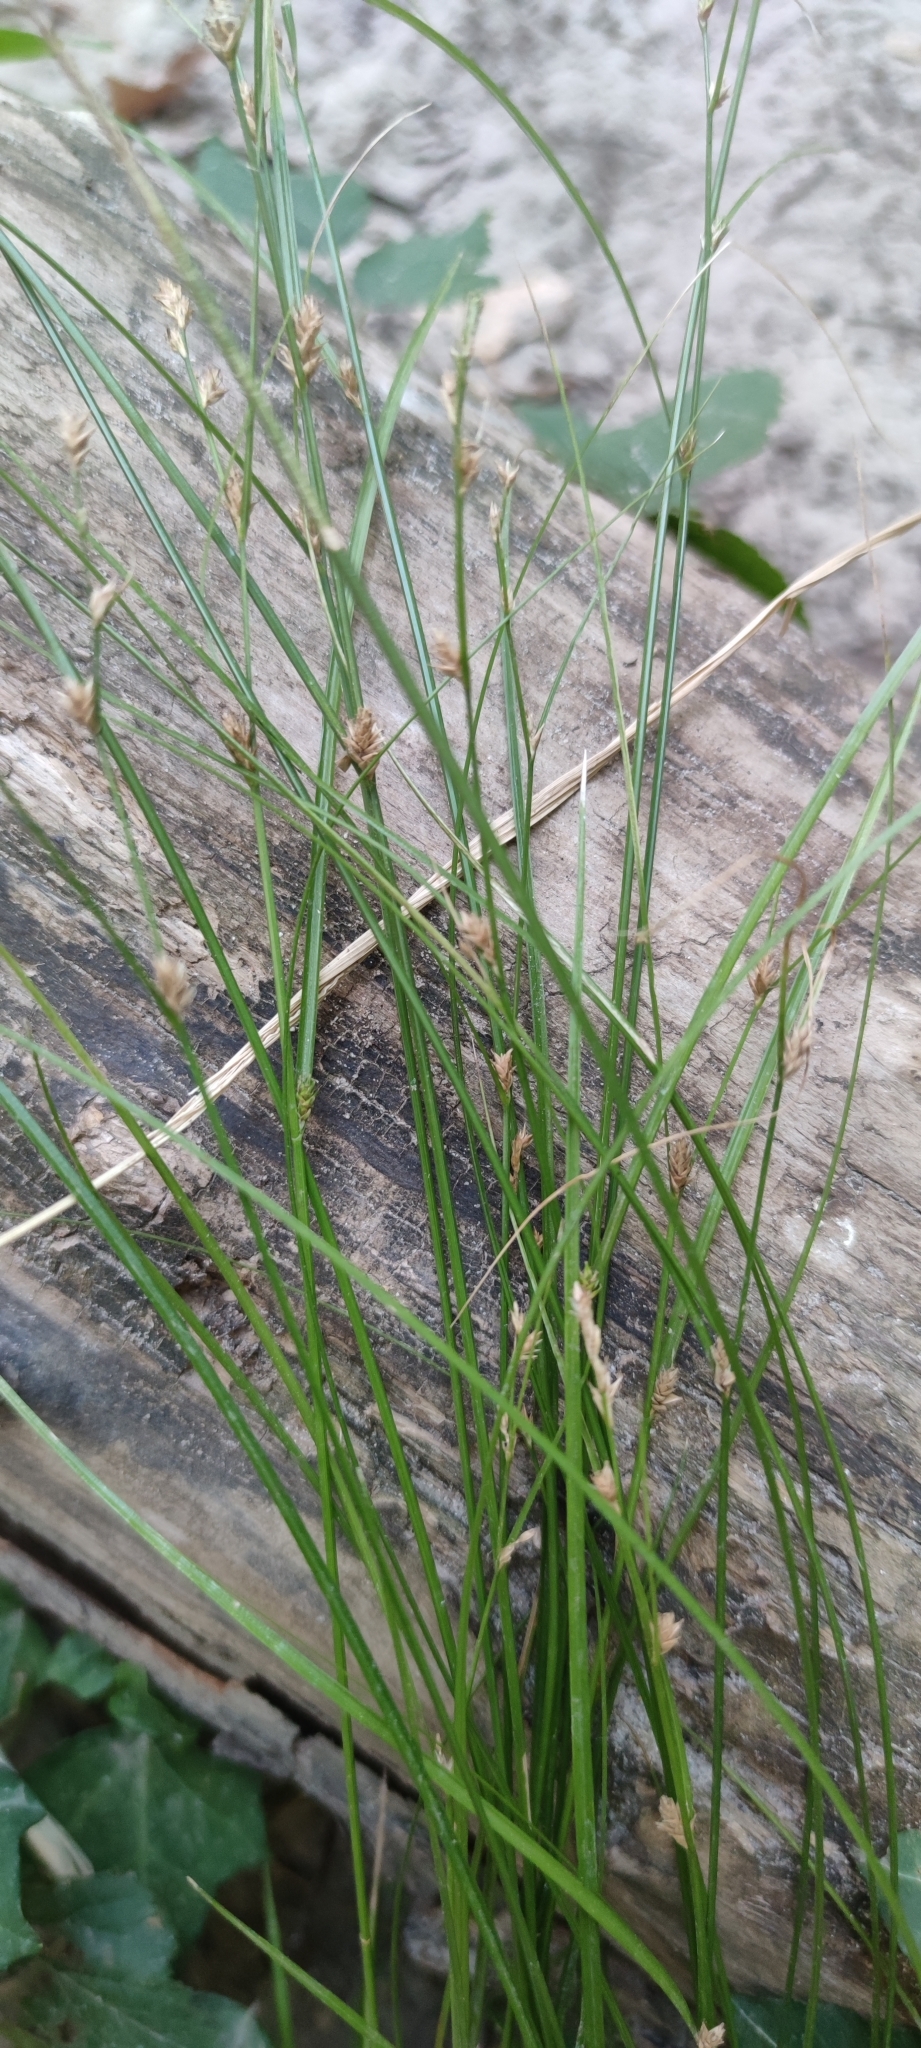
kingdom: Plantae
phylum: Tracheophyta
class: Liliopsida
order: Poales
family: Cyperaceae
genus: Carex
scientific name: Carex remota
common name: Remote sedge
